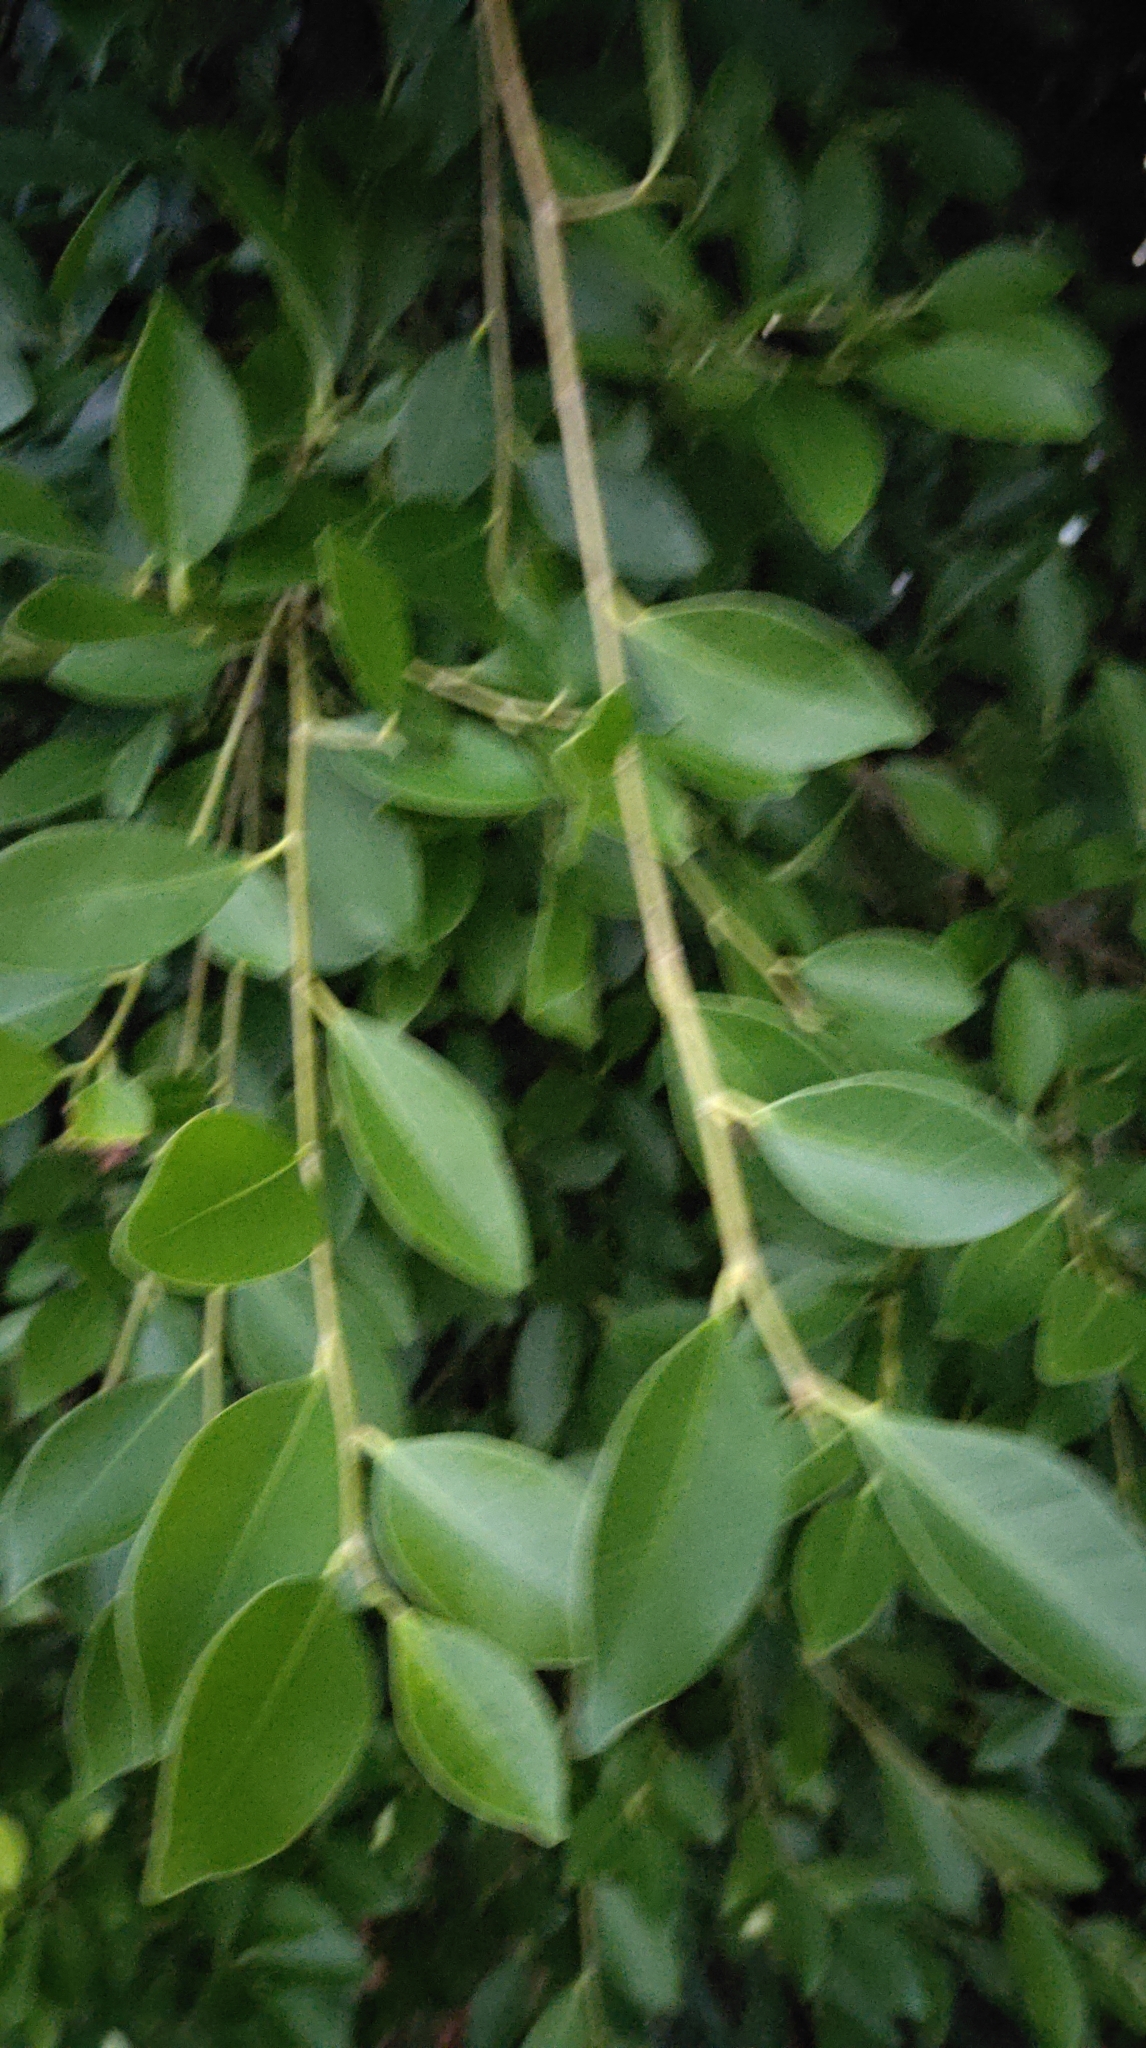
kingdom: Plantae
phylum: Tracheophyta
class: Magnoliopsida
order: Rosales
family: Moraceae
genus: Ficus
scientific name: Ficus microcarpa
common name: Chinese banyan
